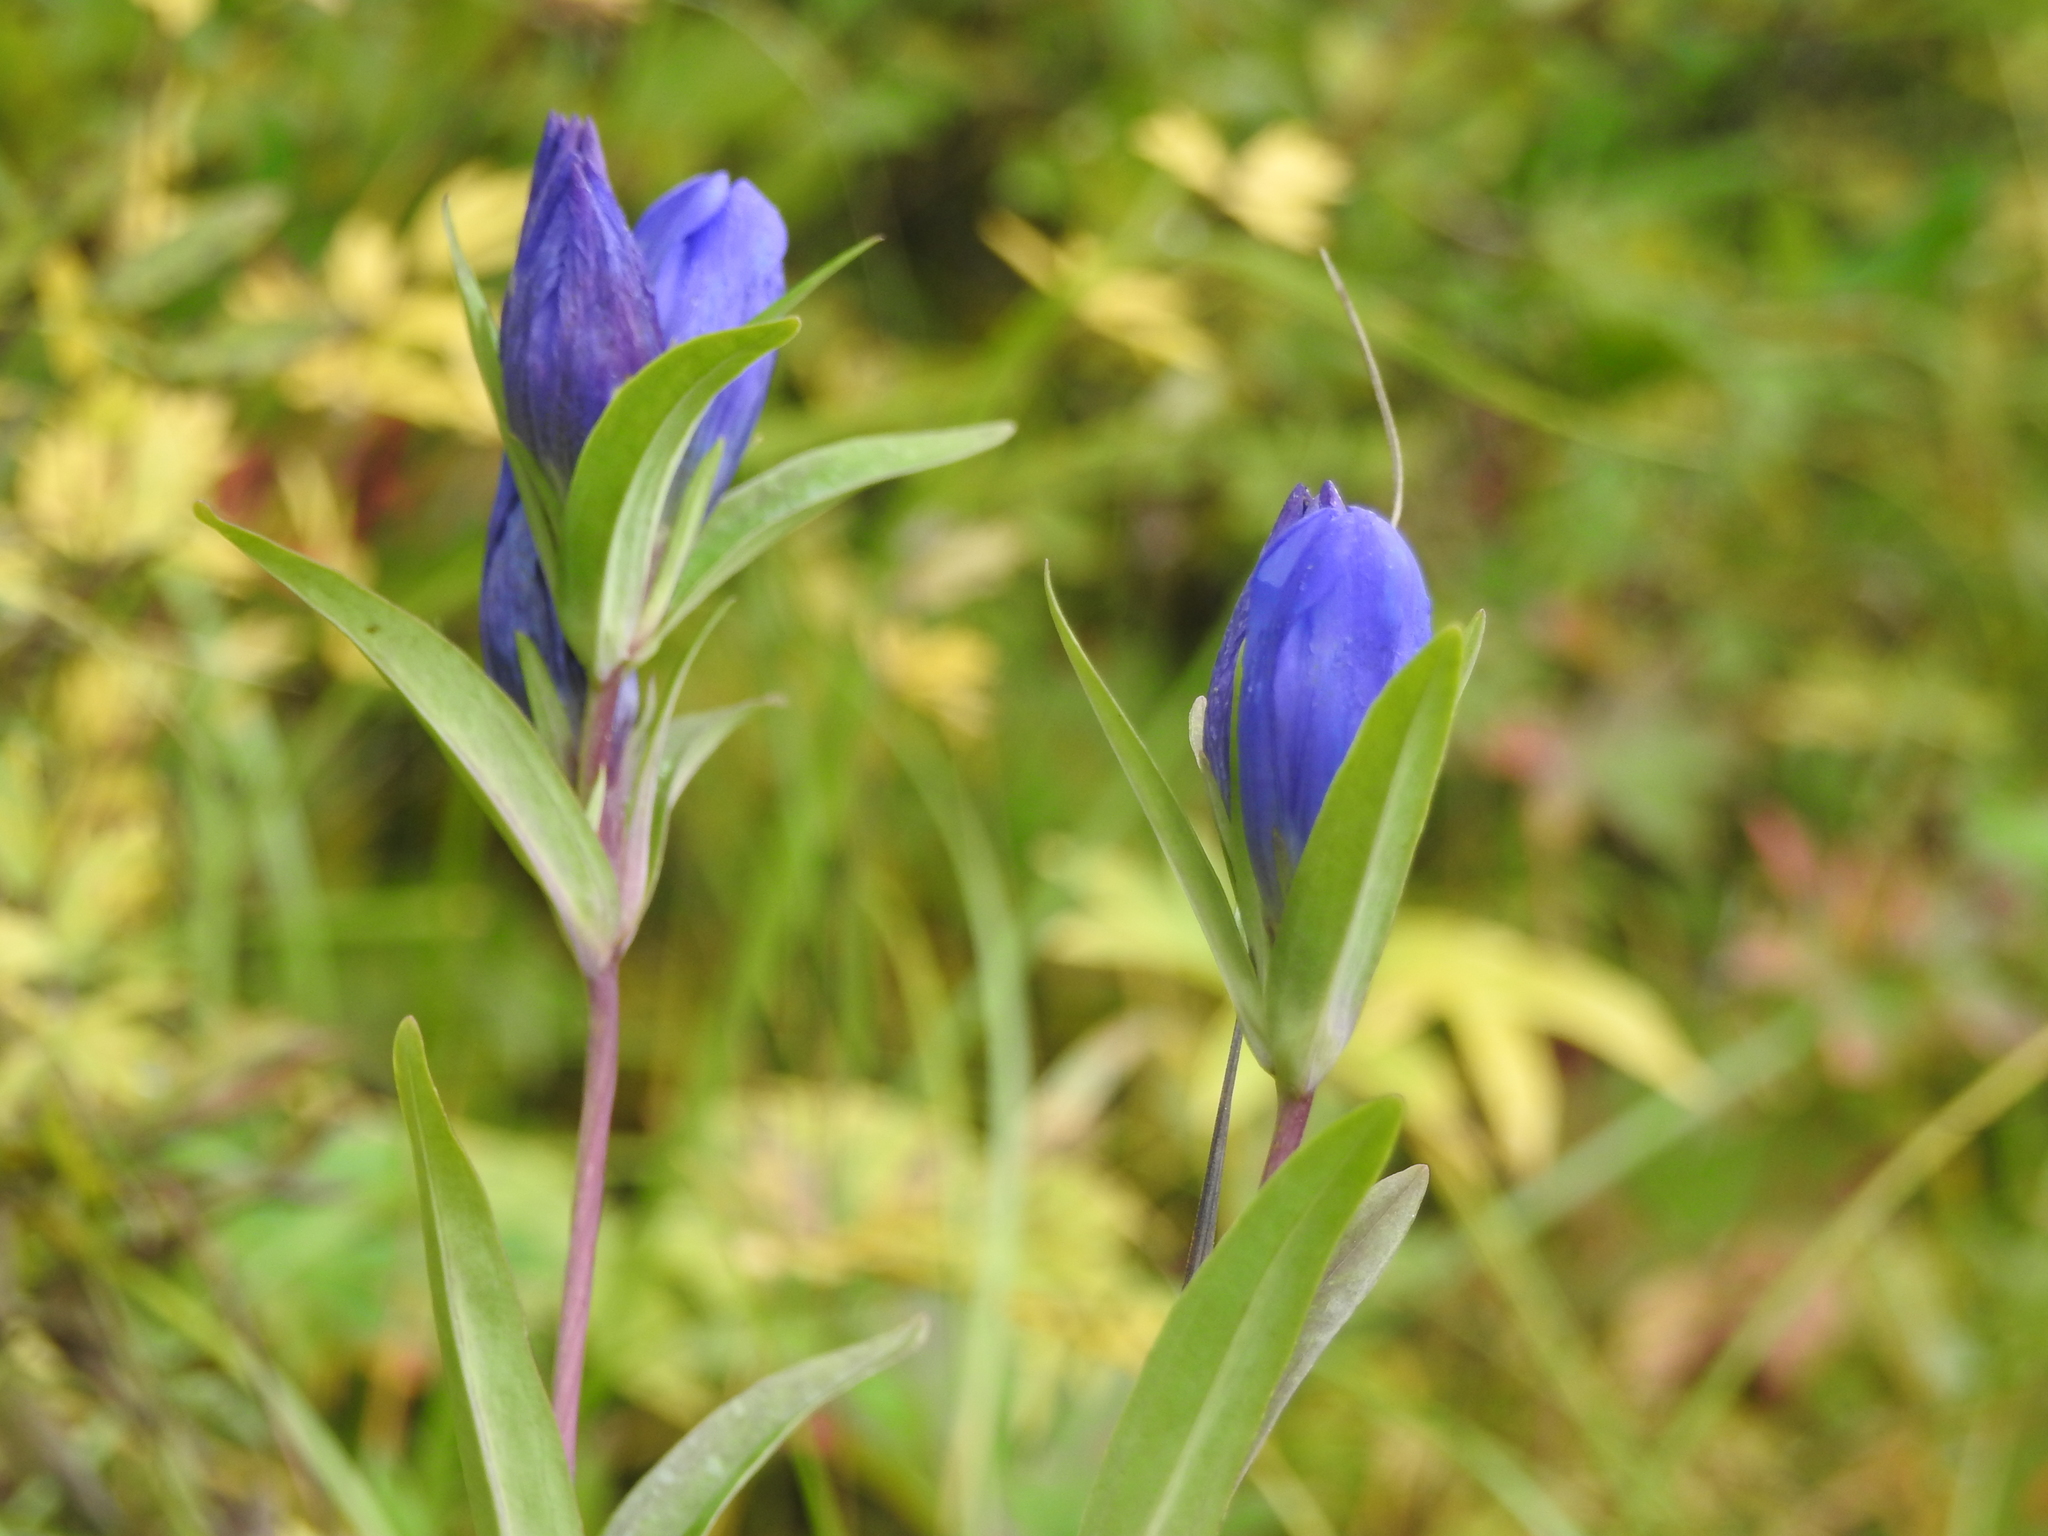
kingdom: Plantae
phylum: Tracheophyta
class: Magnoliopsida
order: Gentianales
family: Gentianaceae
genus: Gentiana
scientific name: Gentiana triflora
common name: Three-flower gentian
